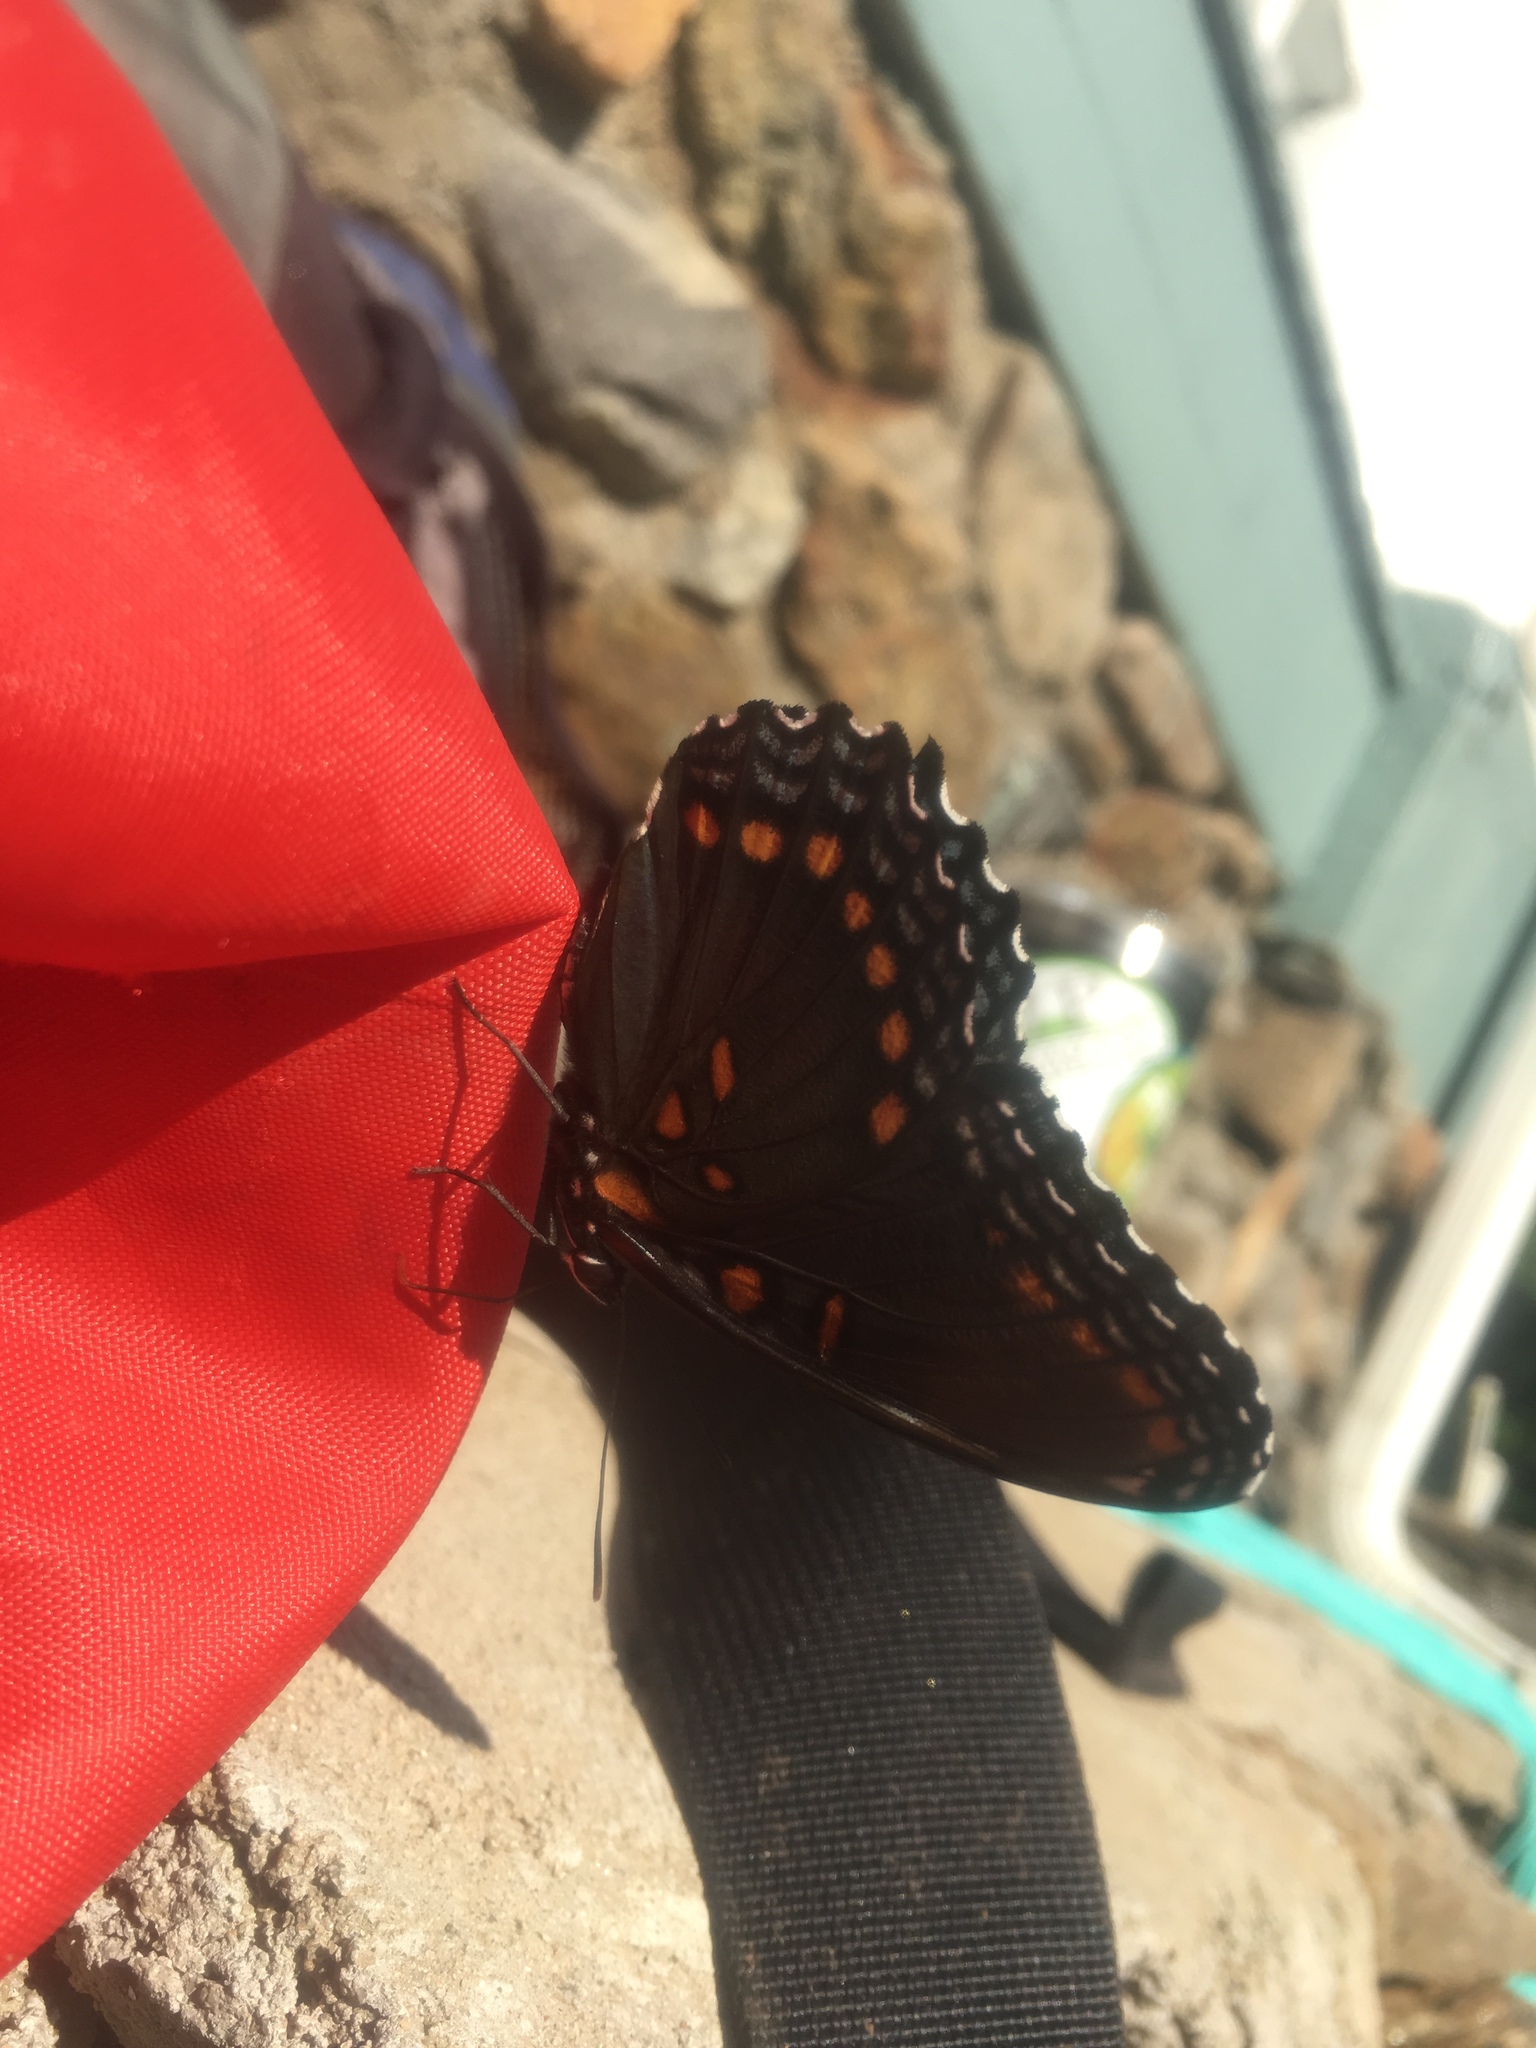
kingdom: Animalia
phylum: Arthropoda
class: Insecta
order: Lepidoptera
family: Nymphalidae
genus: Limenitis
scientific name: Limenitis astyanax
